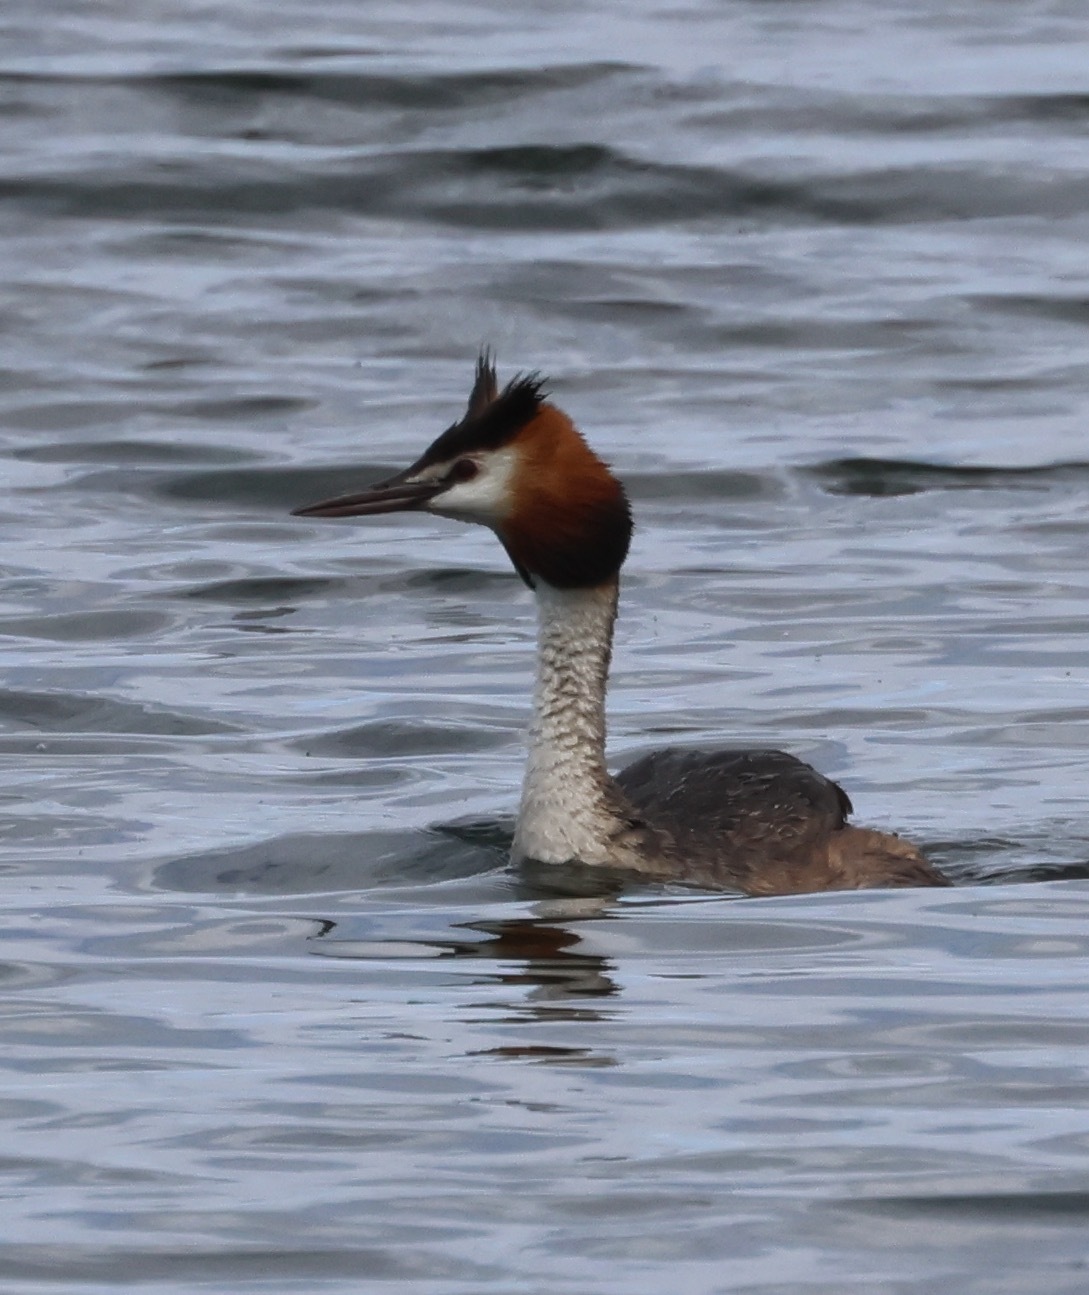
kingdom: Animalia
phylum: Chordata
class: Aves
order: Podicipediformes
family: Podicipedidae
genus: Podiceps
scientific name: Podiceps cristatus
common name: Great crested grebe
